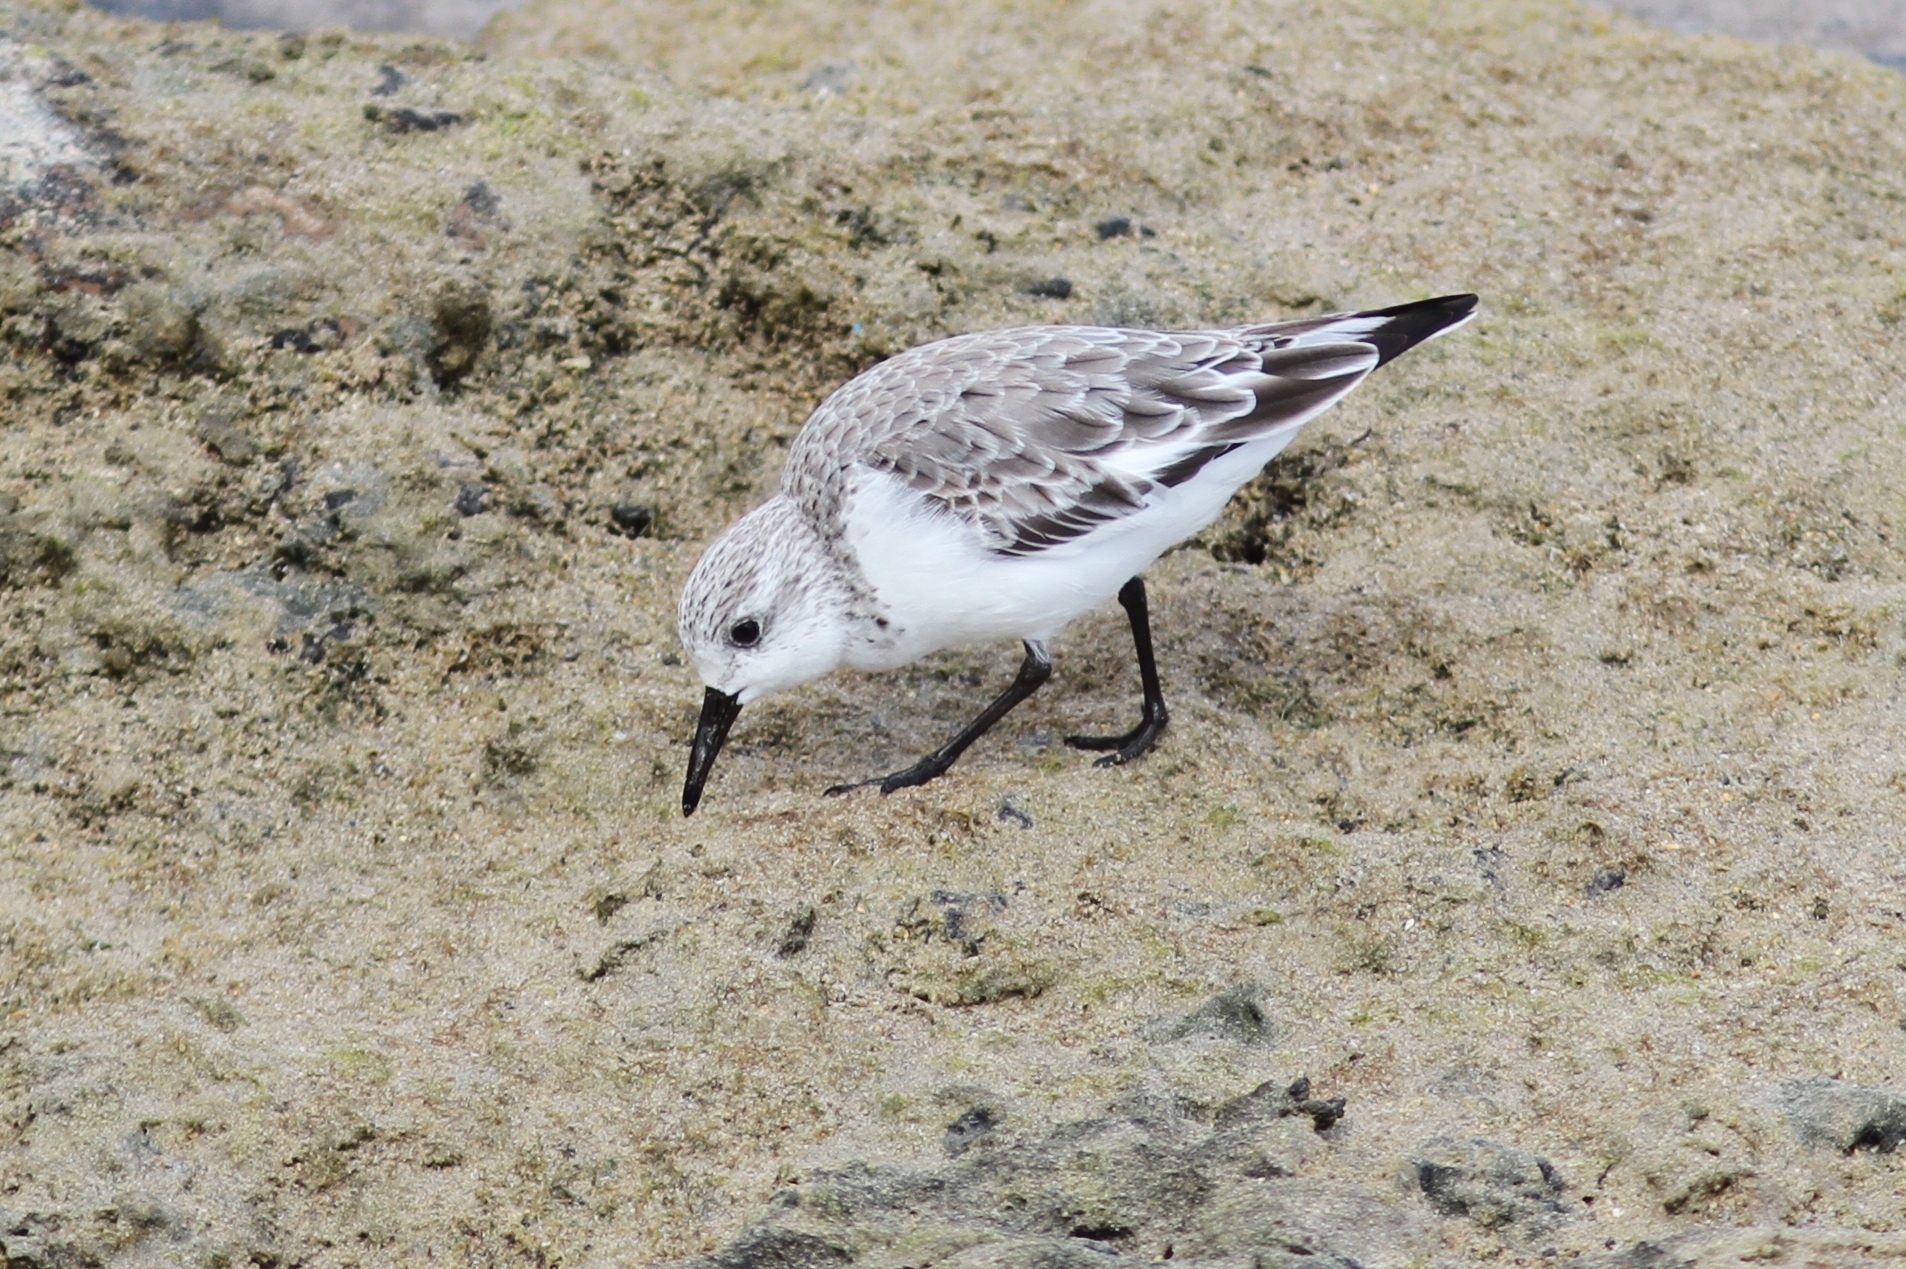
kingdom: Animalia
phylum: Chordata
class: Aves
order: Charadriiformes
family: Scolopacidae
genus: Calidris
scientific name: Calidris alba
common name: Sanderling
